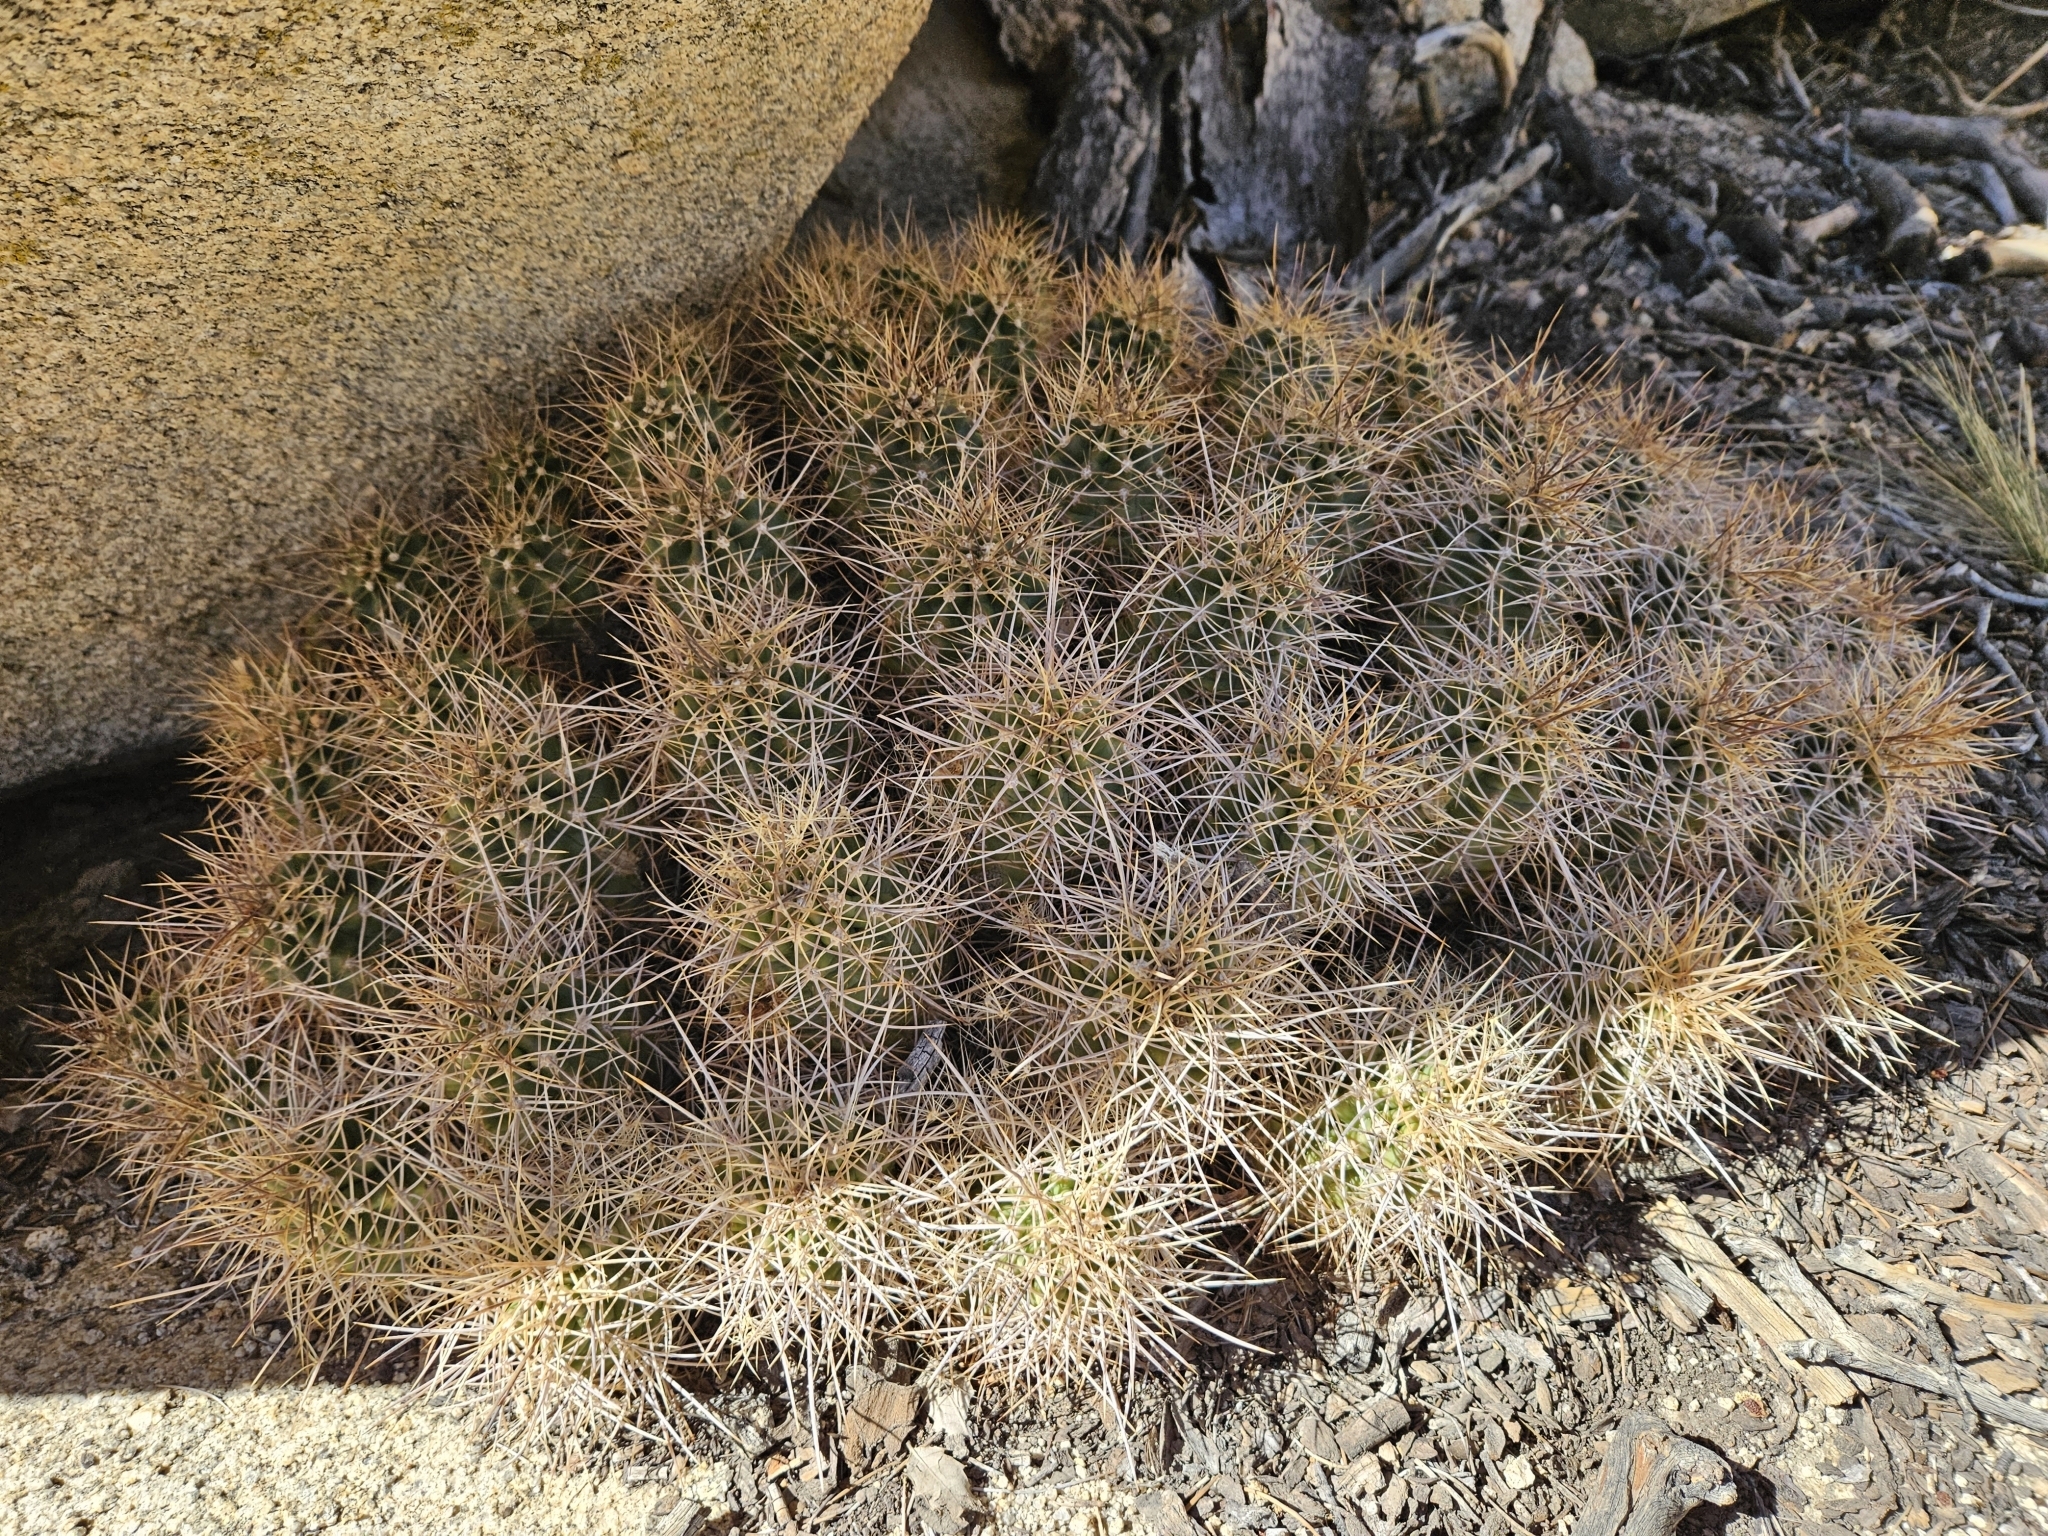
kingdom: Plantae
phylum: Tracheophyta
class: Magnoliopsida
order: Caryophyllales
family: Cactaceae
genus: Echinocereus
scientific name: Echinocereus triglochidiatus
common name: Claretcup hedgehog
